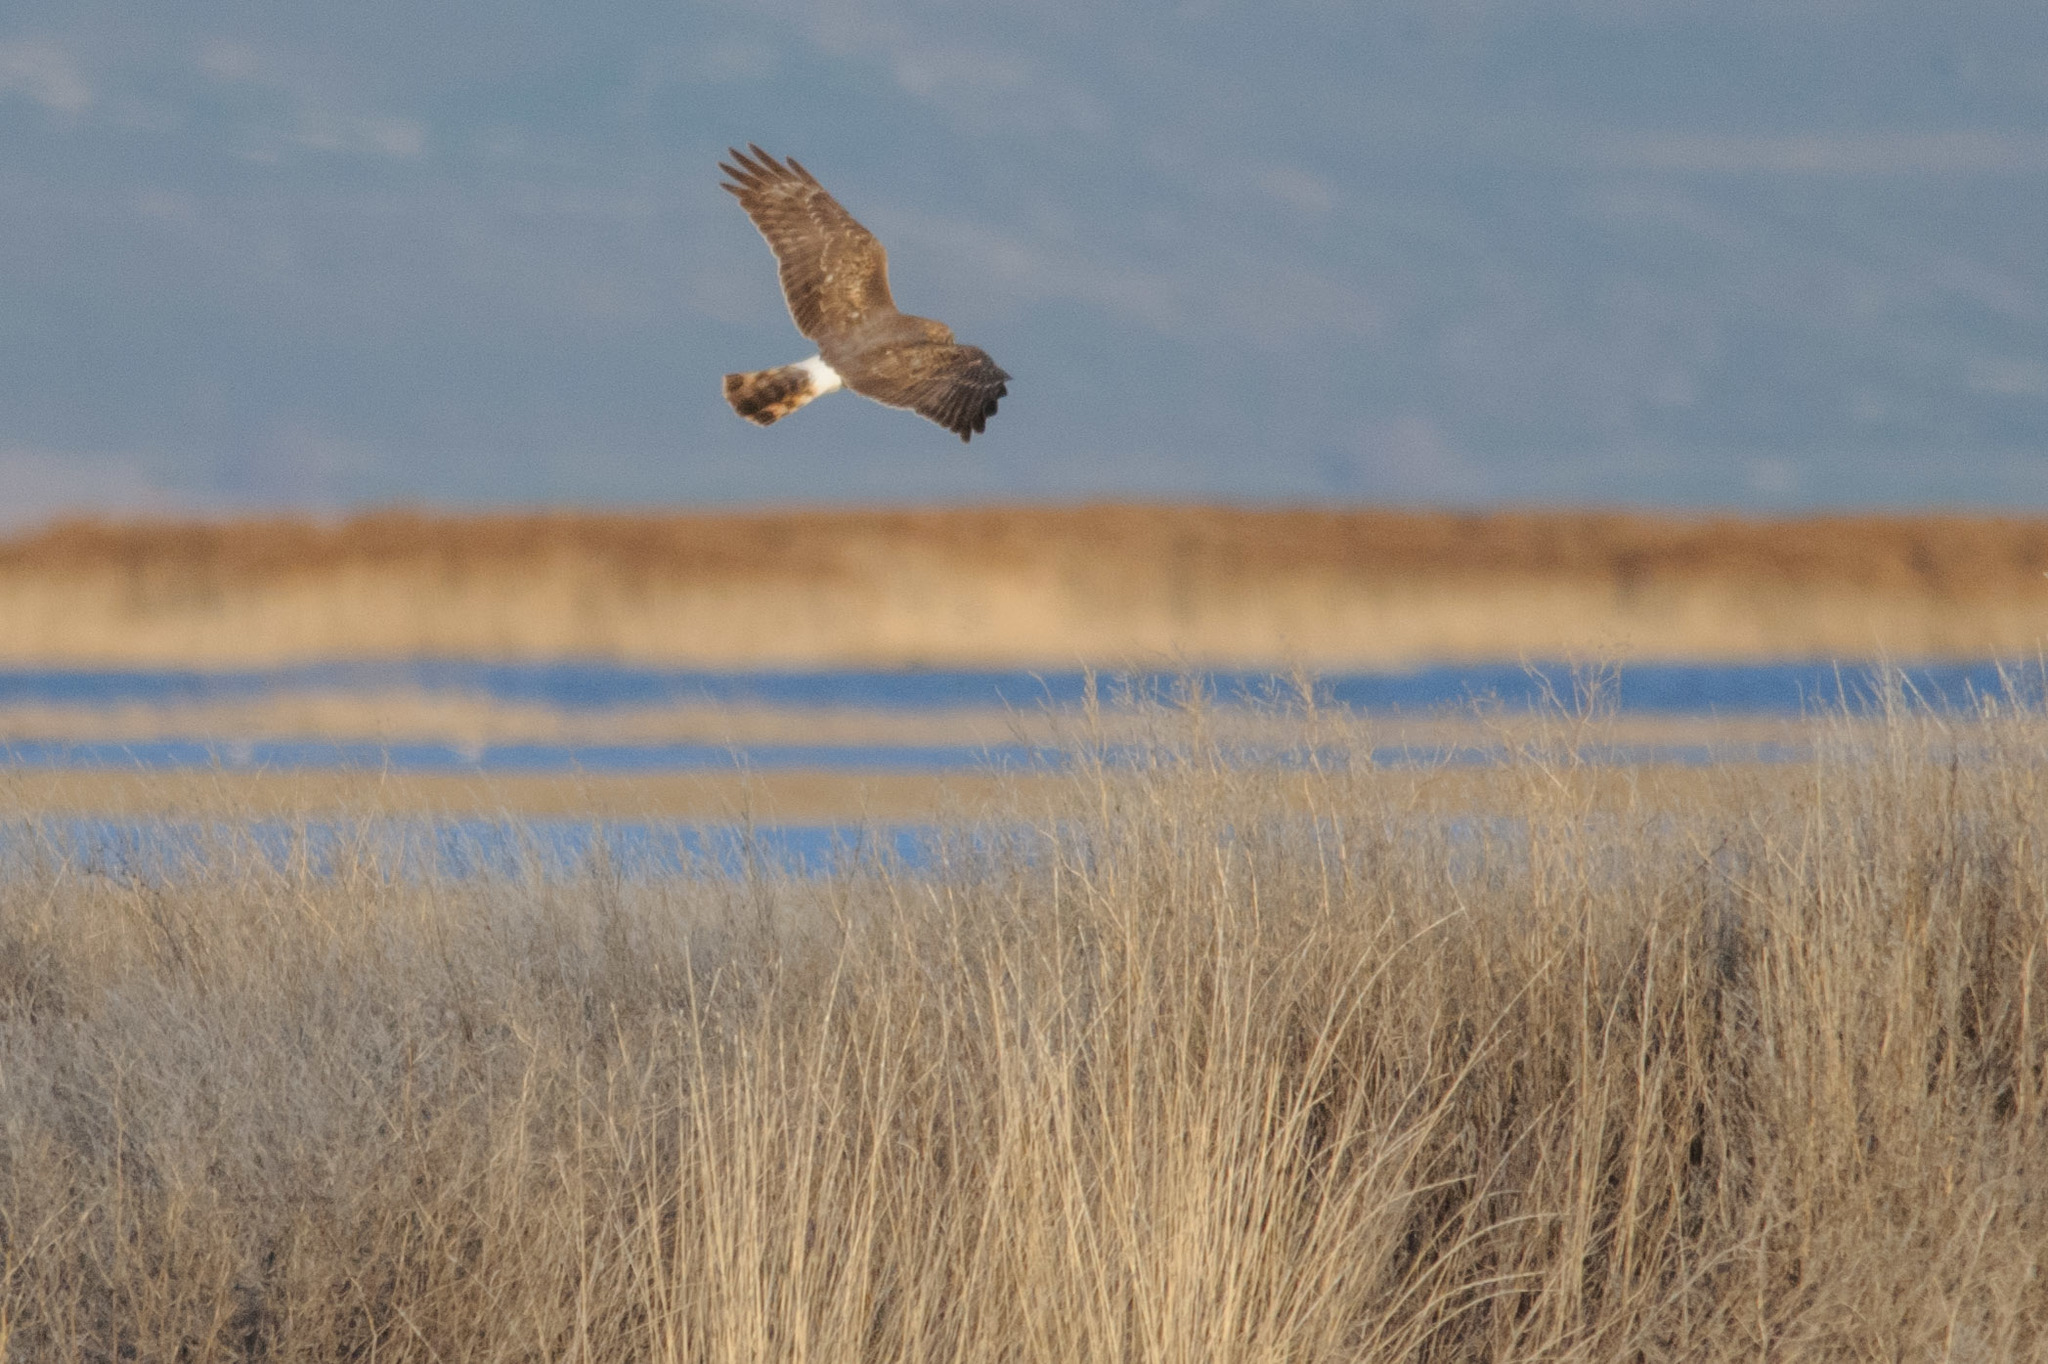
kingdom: Animalia
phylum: Chordata
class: Aves
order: Accipitriformes
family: Accipitridae
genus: Circus
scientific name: Circus cyaneus
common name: Hen harrier
